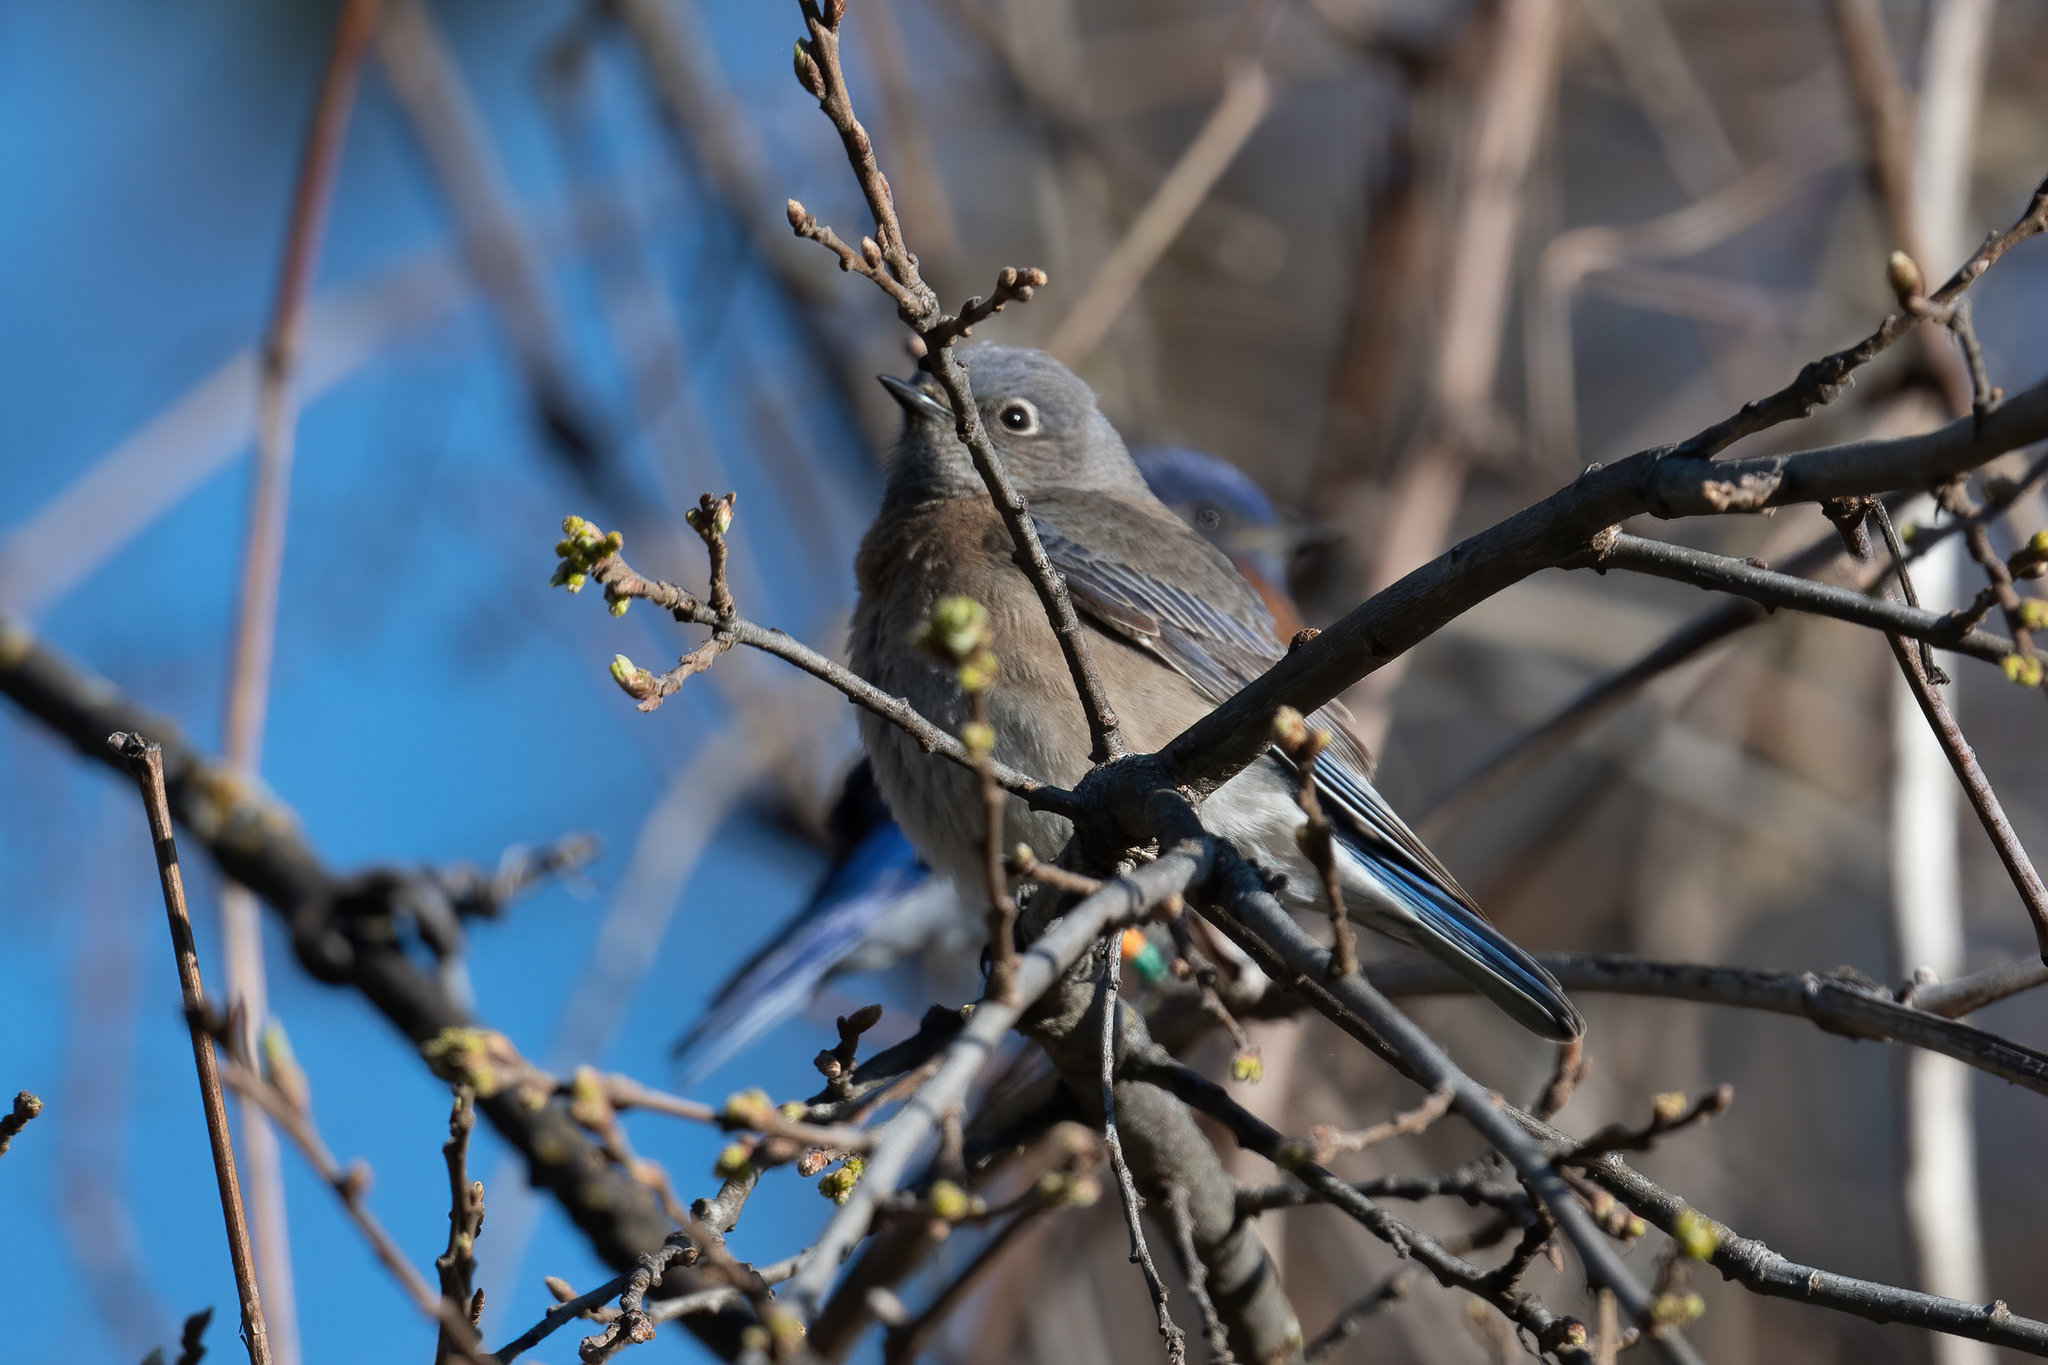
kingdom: Animalia
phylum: Chordata
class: Aves
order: Passeriformes
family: Turdidae
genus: Sialia
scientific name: Sialia mexicana
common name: Western bluebird
